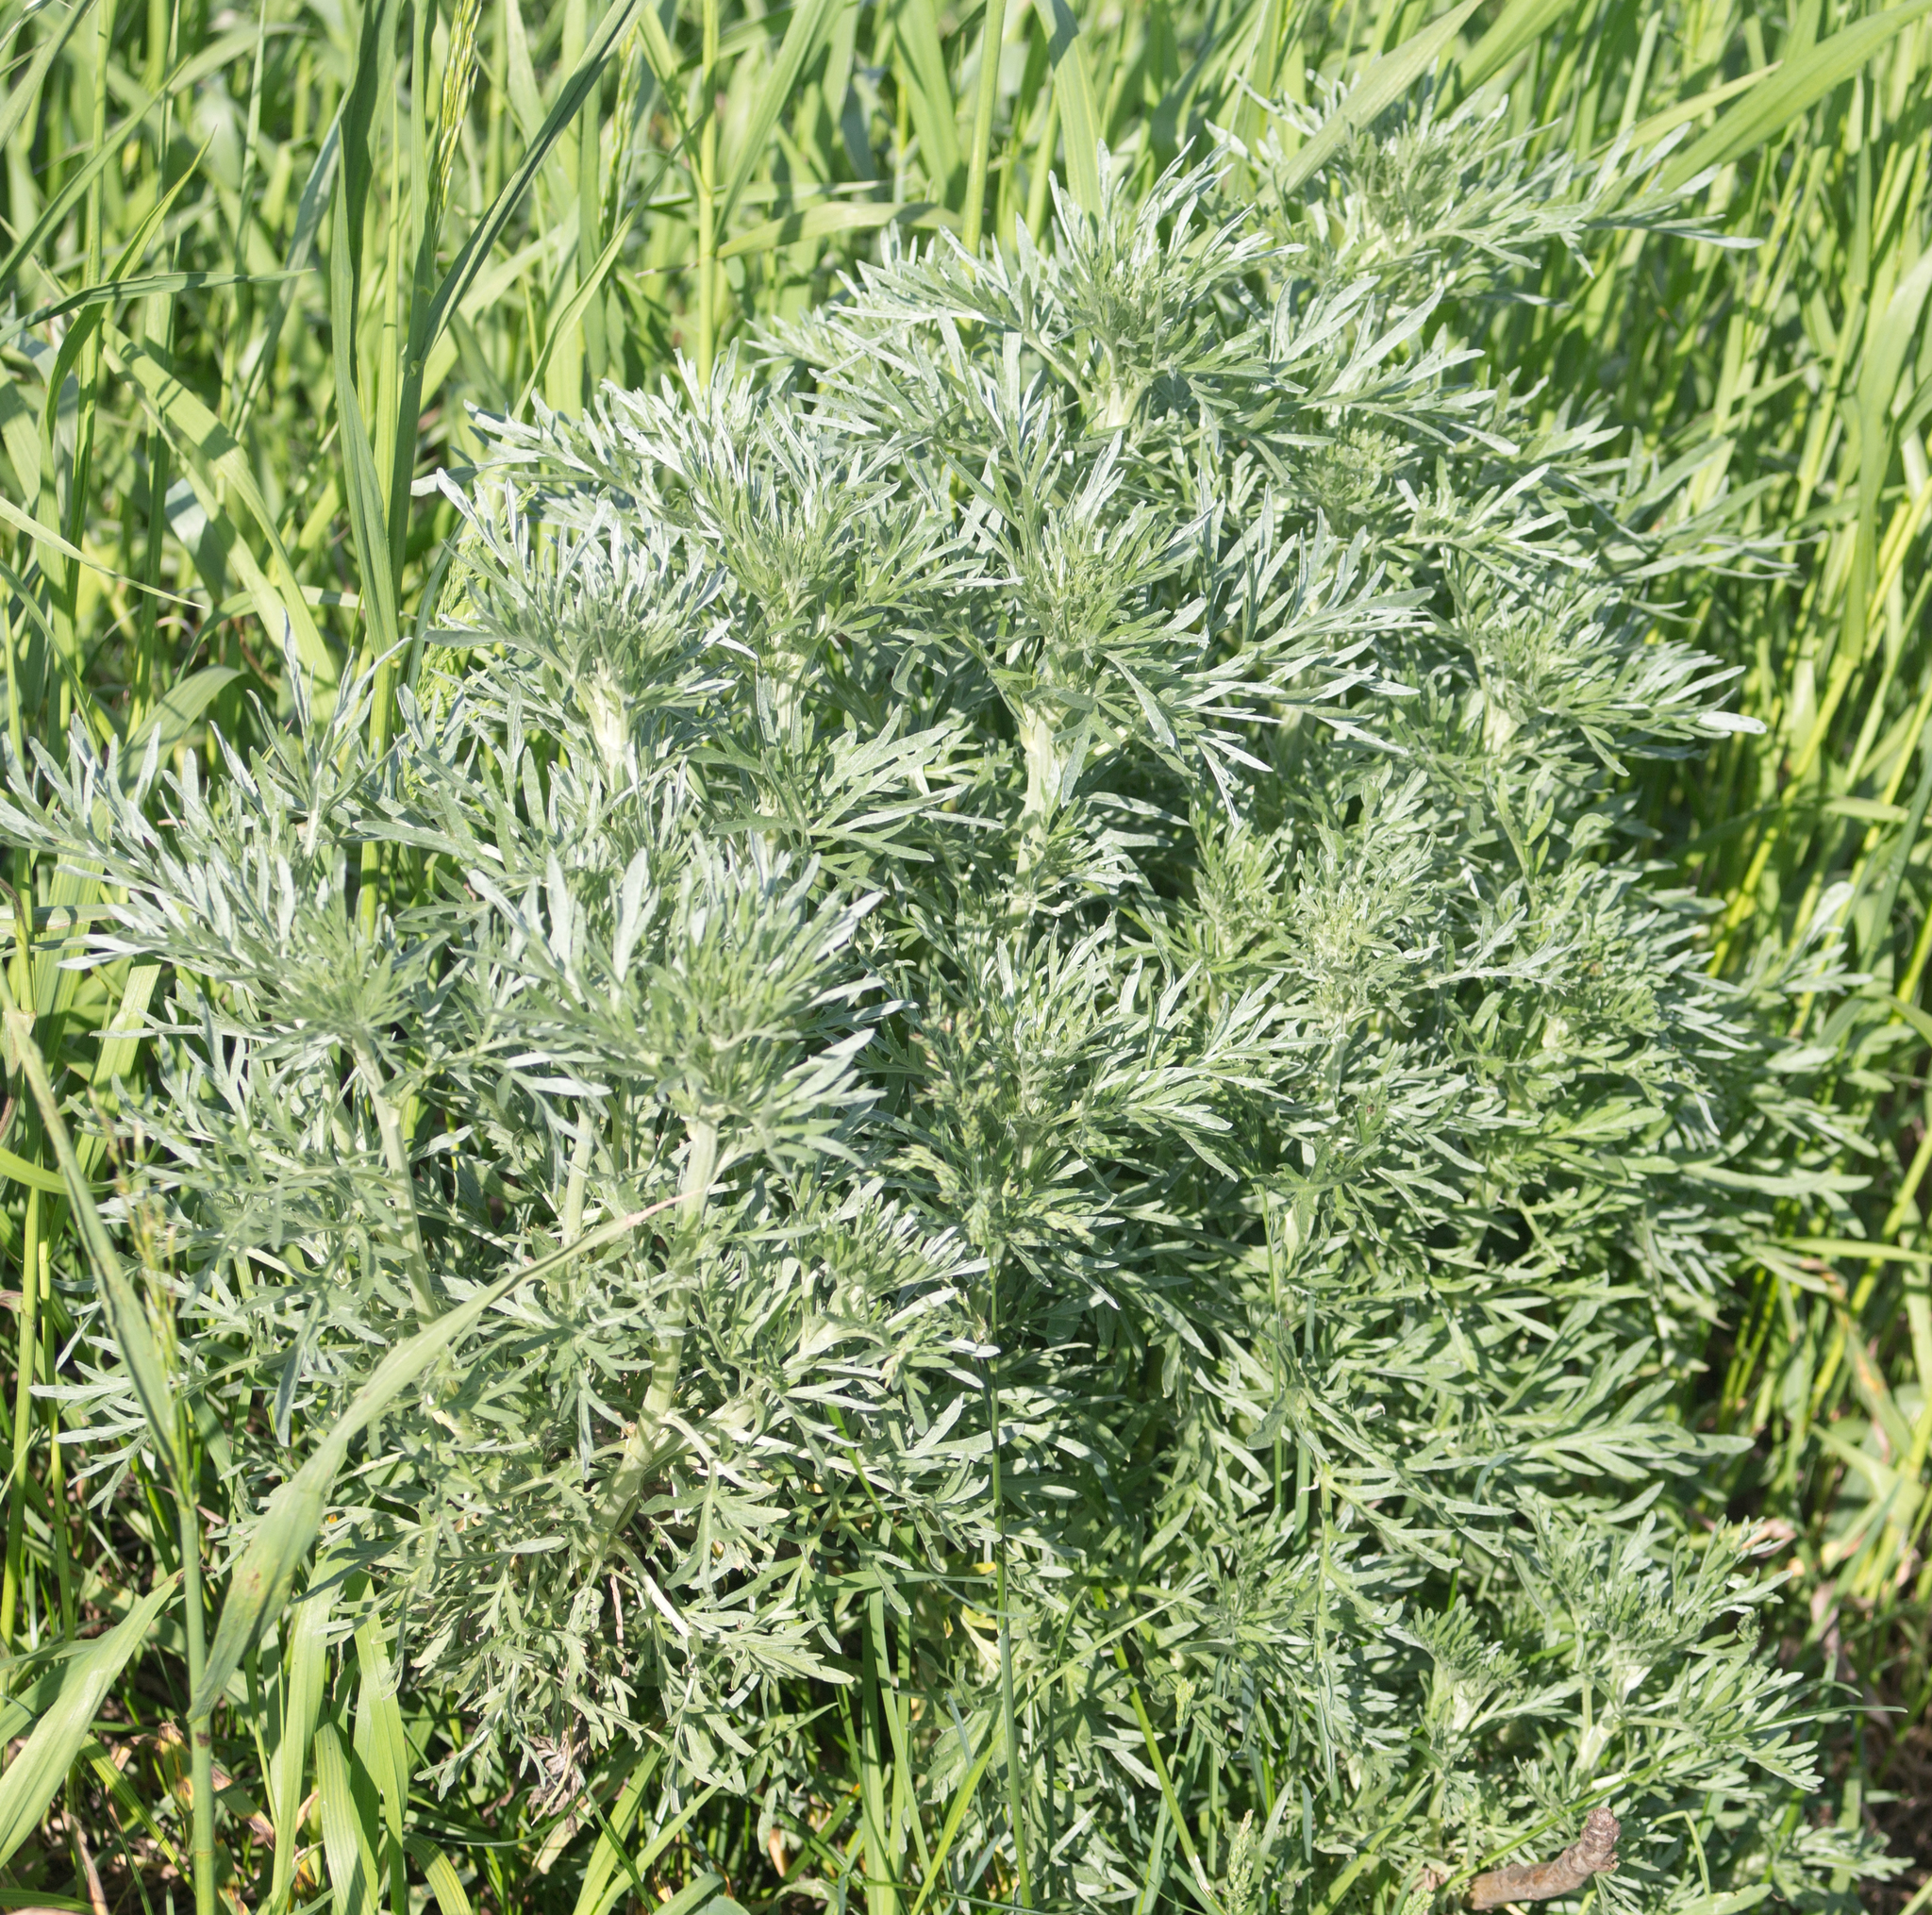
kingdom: Plantae
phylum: Tracheophyta
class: Magnoliopsida
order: Asterales
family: Asteraceae
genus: Artemisia
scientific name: Artemisia absinthium
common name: Wormwood
